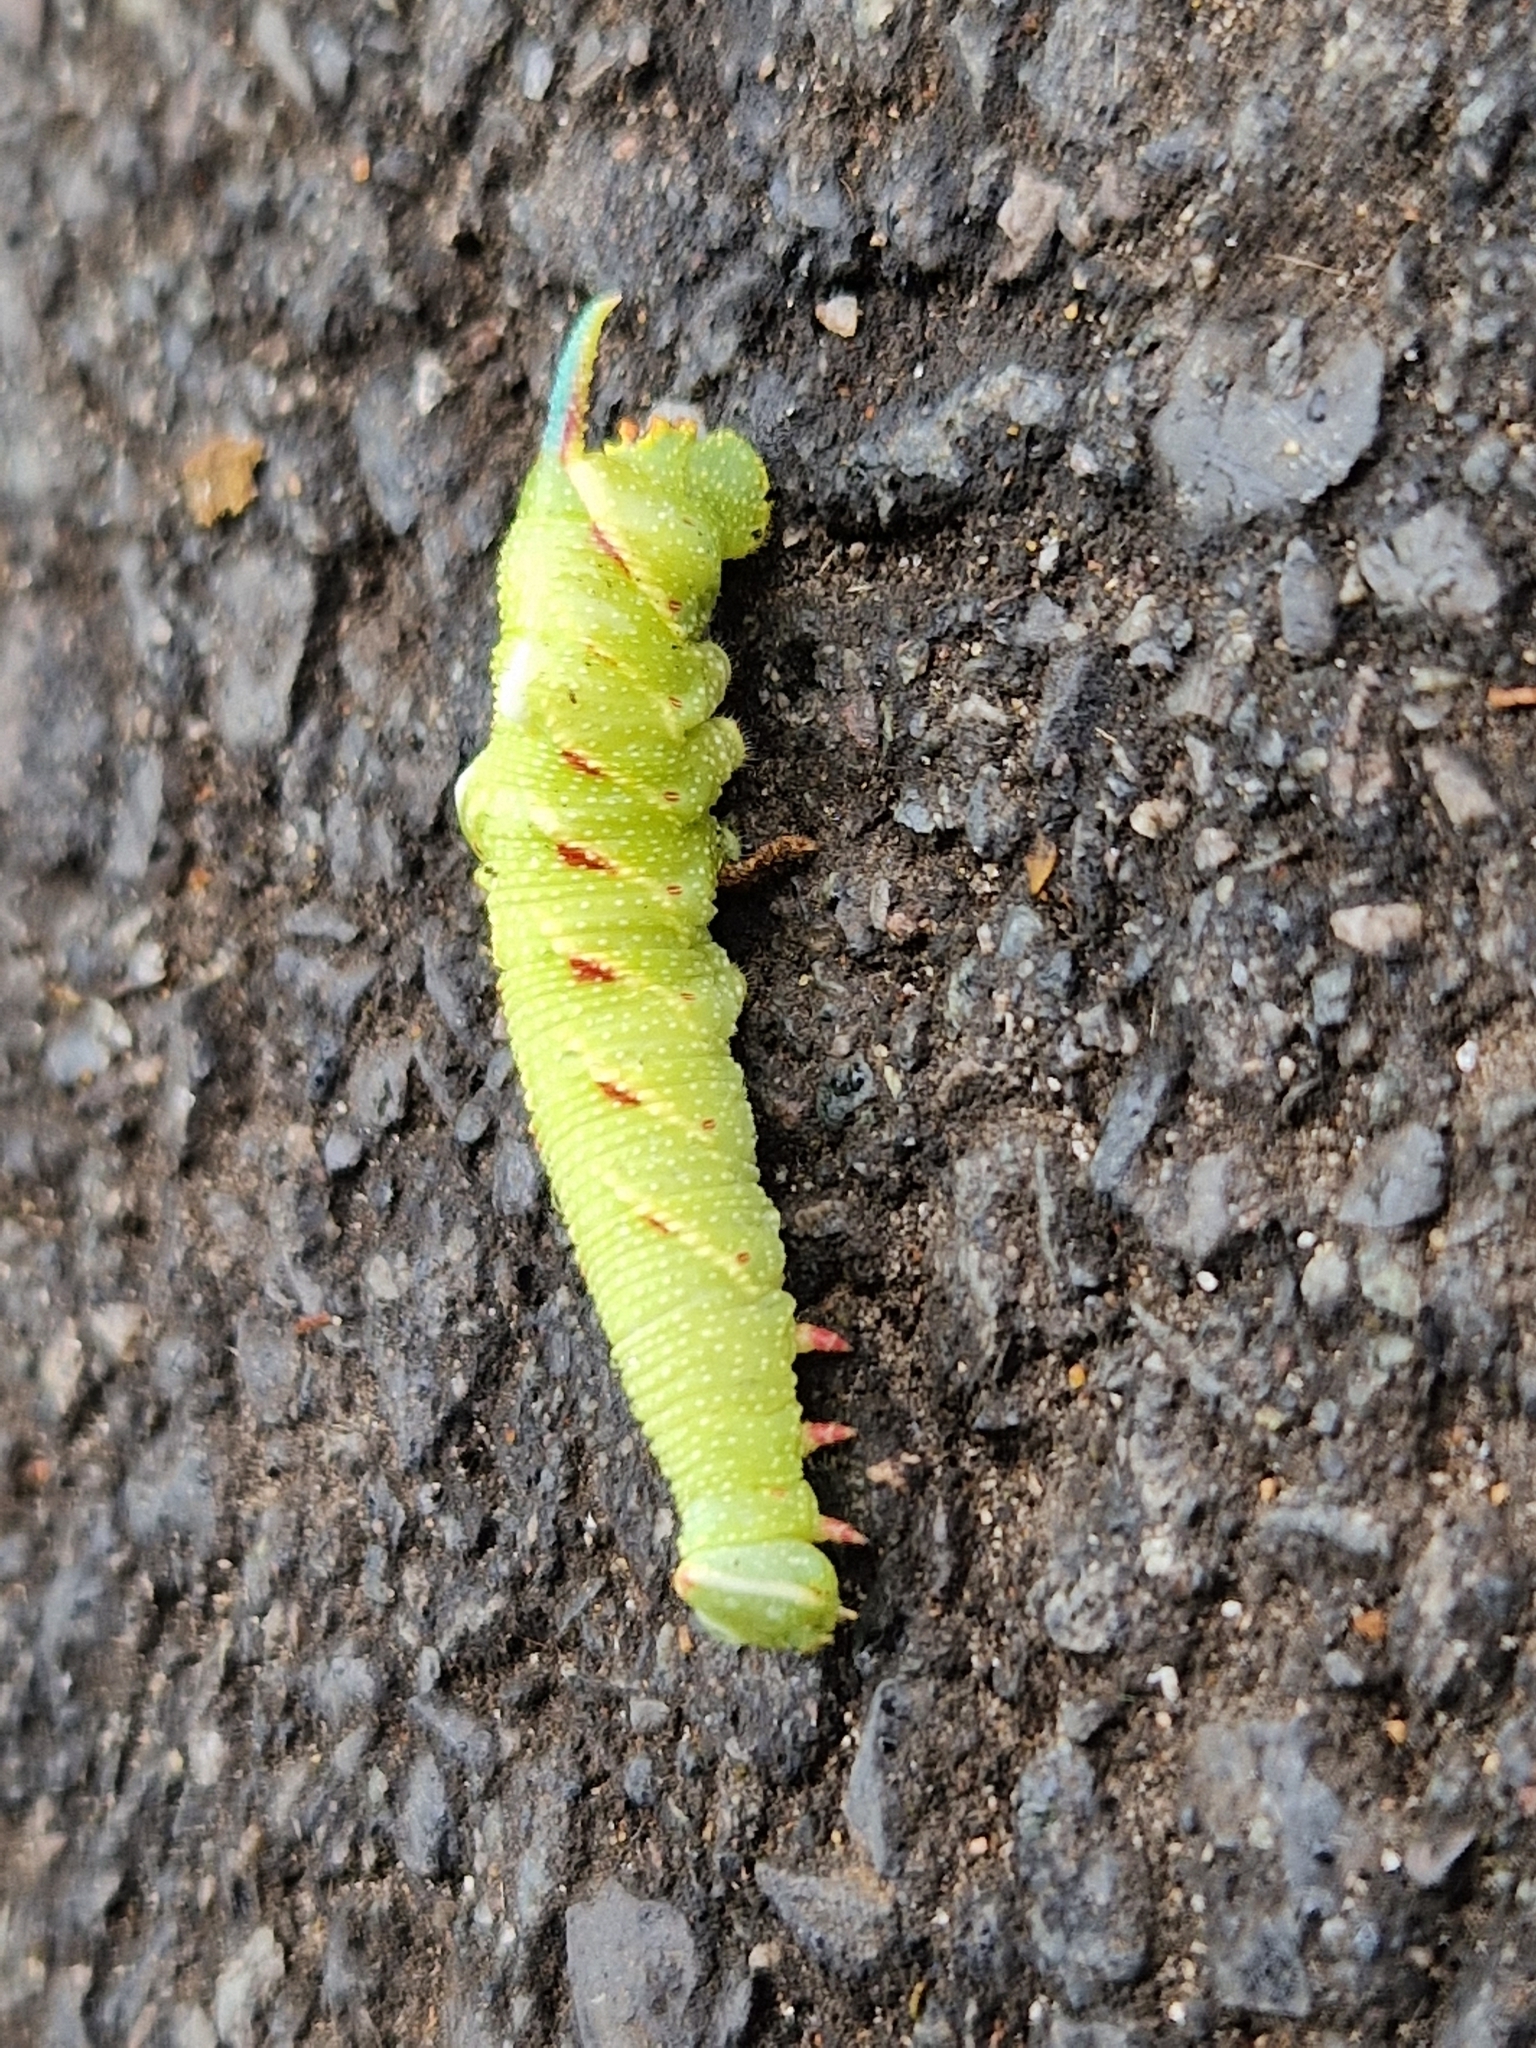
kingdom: Animalia
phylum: Arthropoda
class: Insecta
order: Lepidoptera
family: Sphingidae
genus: Mimas
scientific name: Mimas tiliae
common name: Lime hawk-moth
